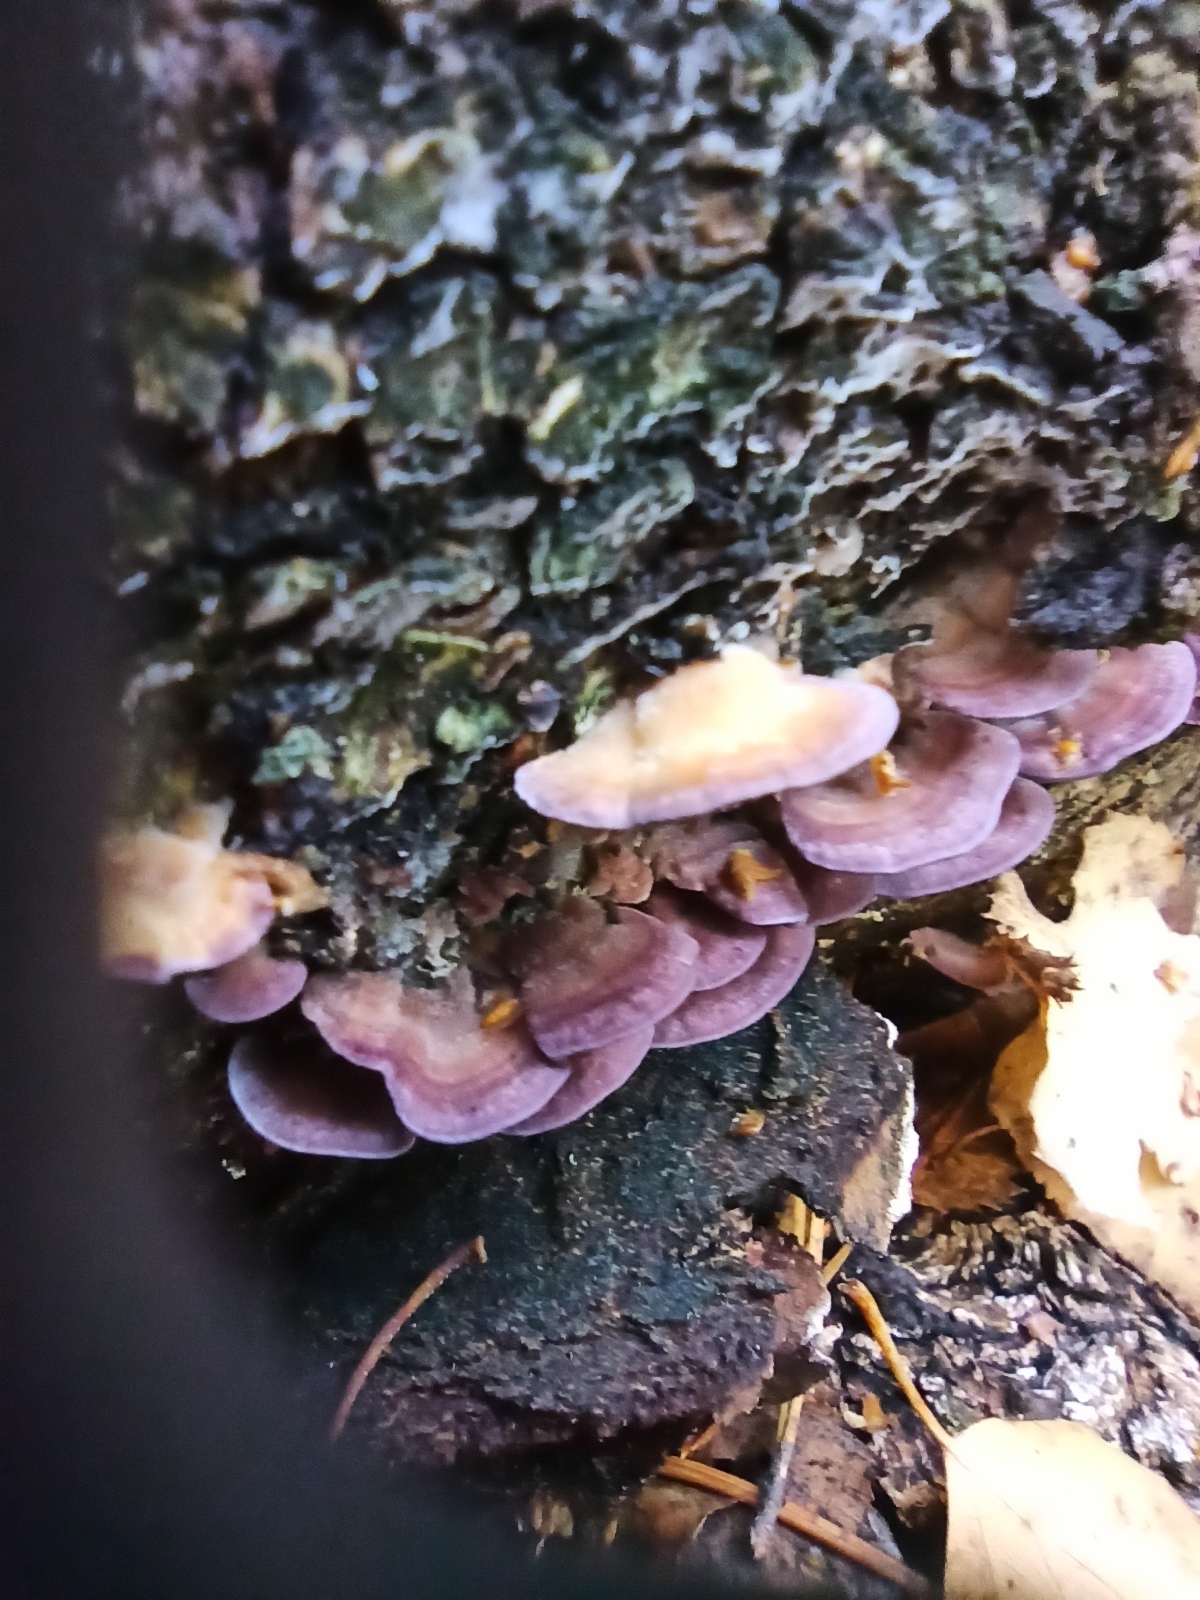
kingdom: Fungi
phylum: Basidiomycota
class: Agaricomycetes
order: Hymenochaetales
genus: Trichaptum
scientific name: Trichaptum biforme
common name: Violet-toothed polypore
